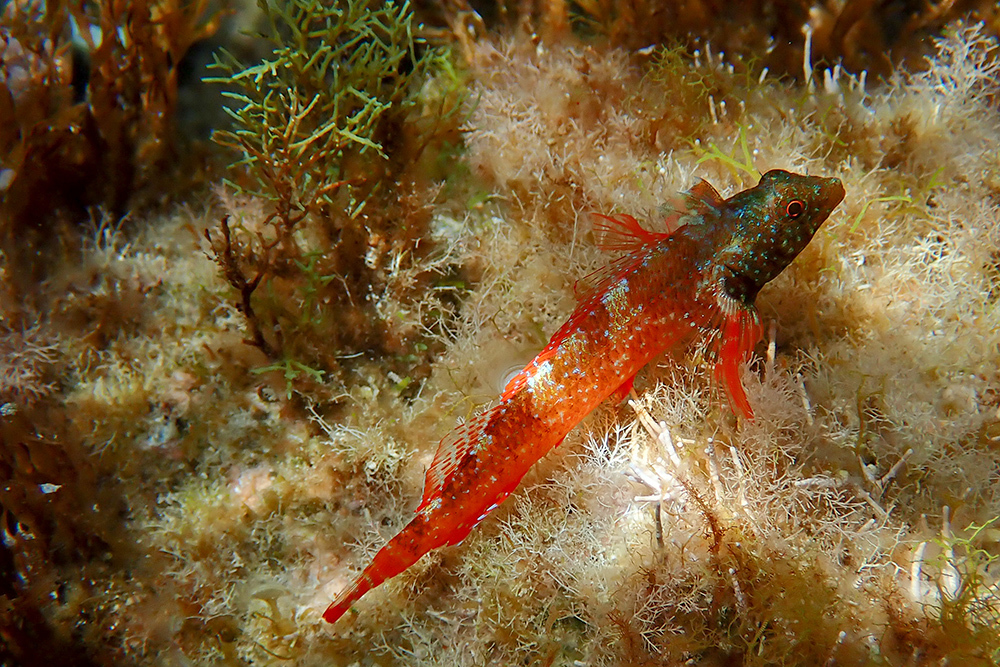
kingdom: Animalia
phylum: Chordata
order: Perciformes
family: Tripterygiidae
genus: Tripterygion
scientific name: Tripterygion tripteronotum
